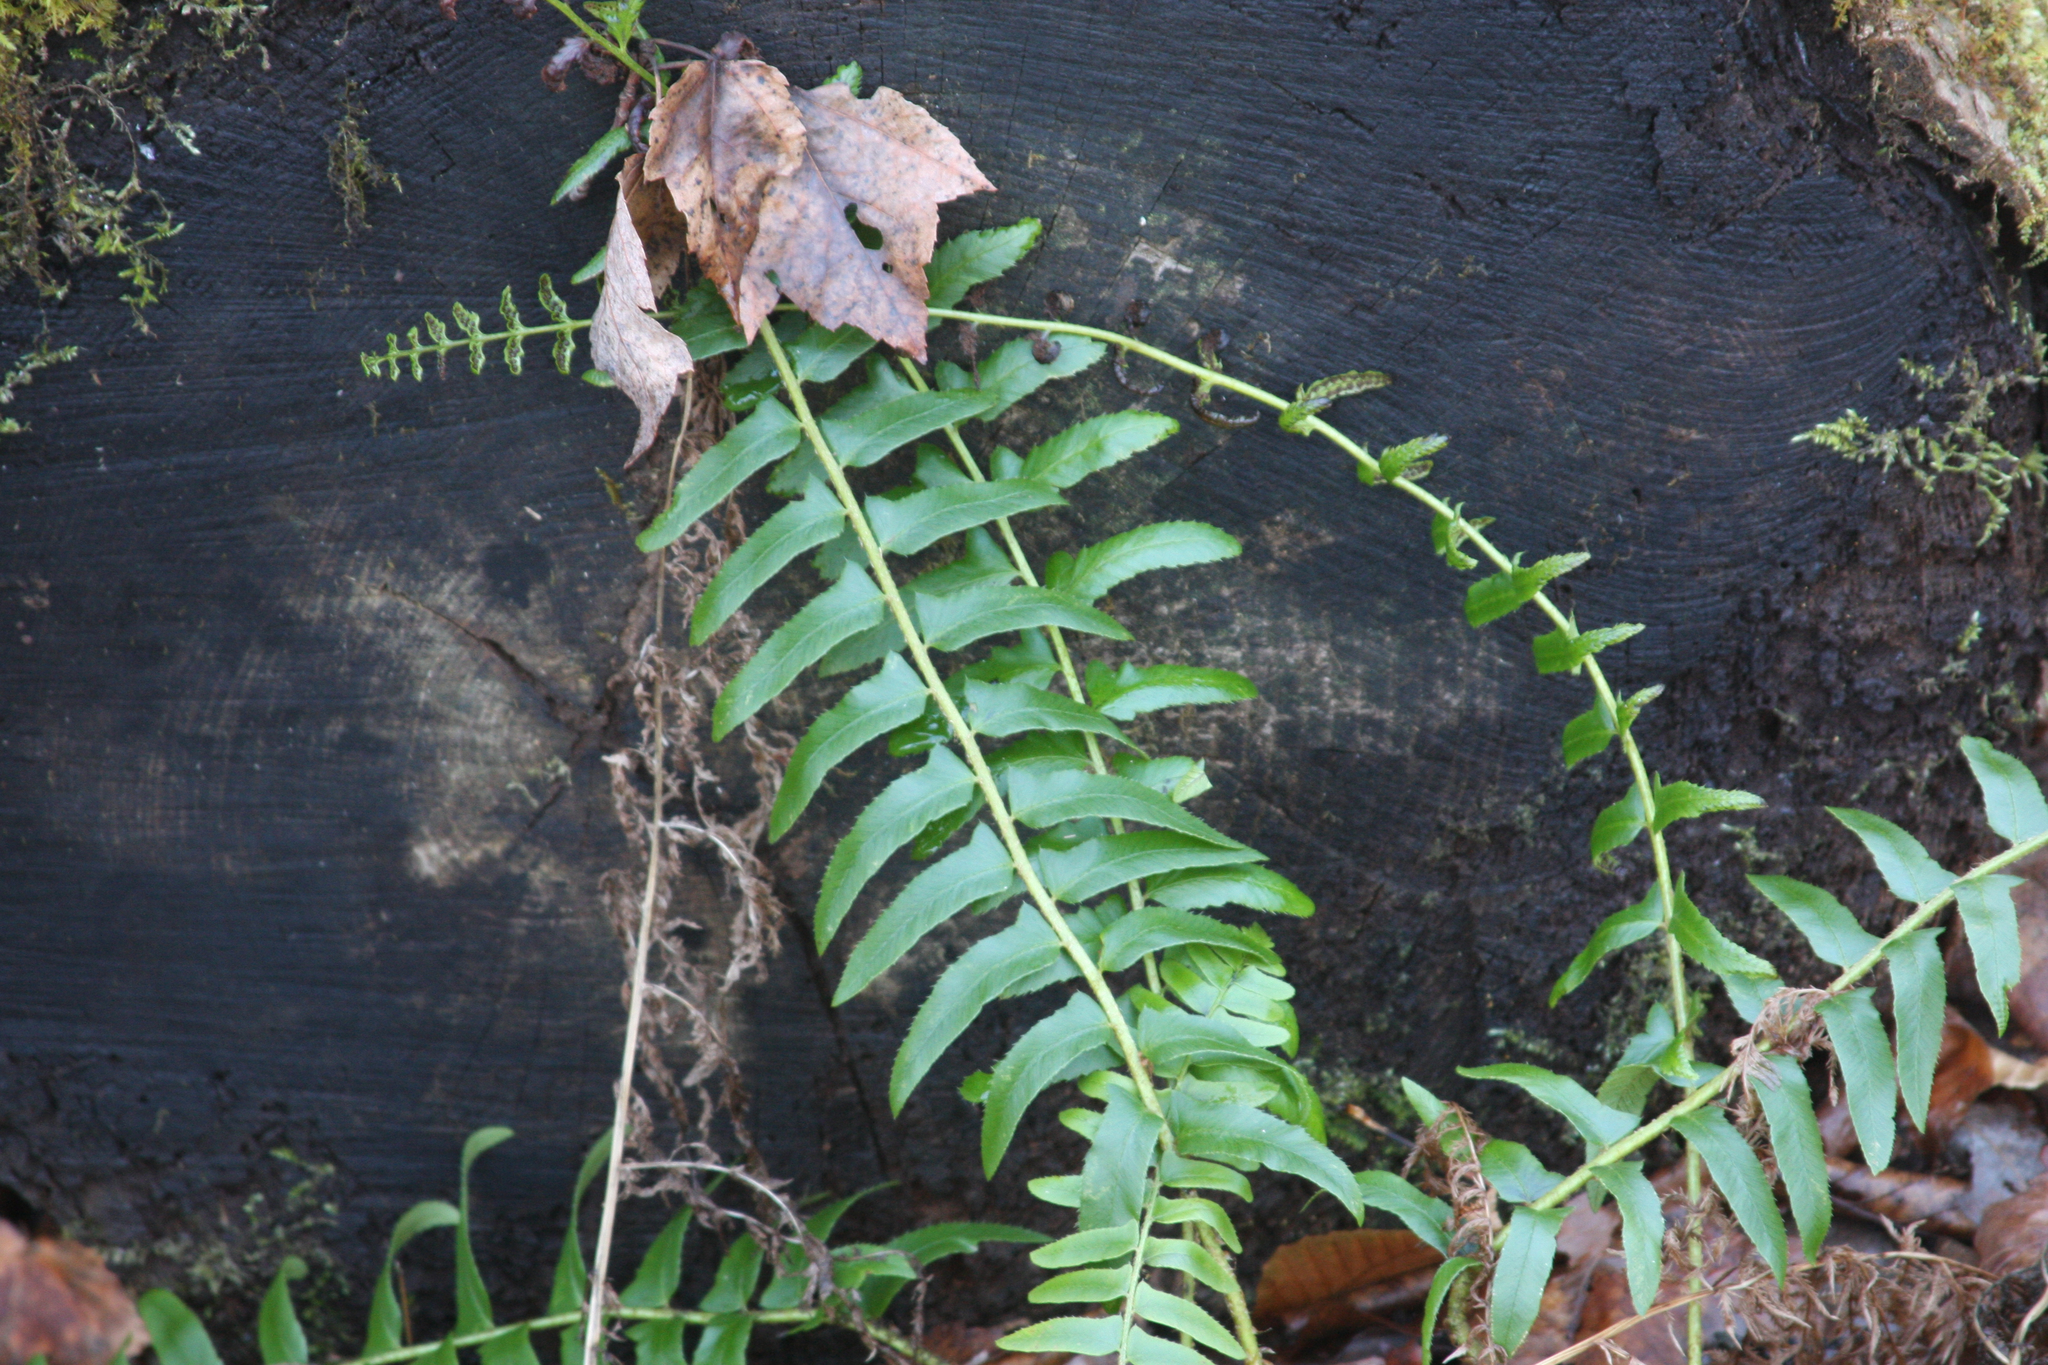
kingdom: Plantae
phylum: Tracheophyta
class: Polypodiopsida
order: Polypodiales
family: Dryopteridaceae
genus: Polystichum
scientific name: Polystichum acrostichoides
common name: Christmas fern
